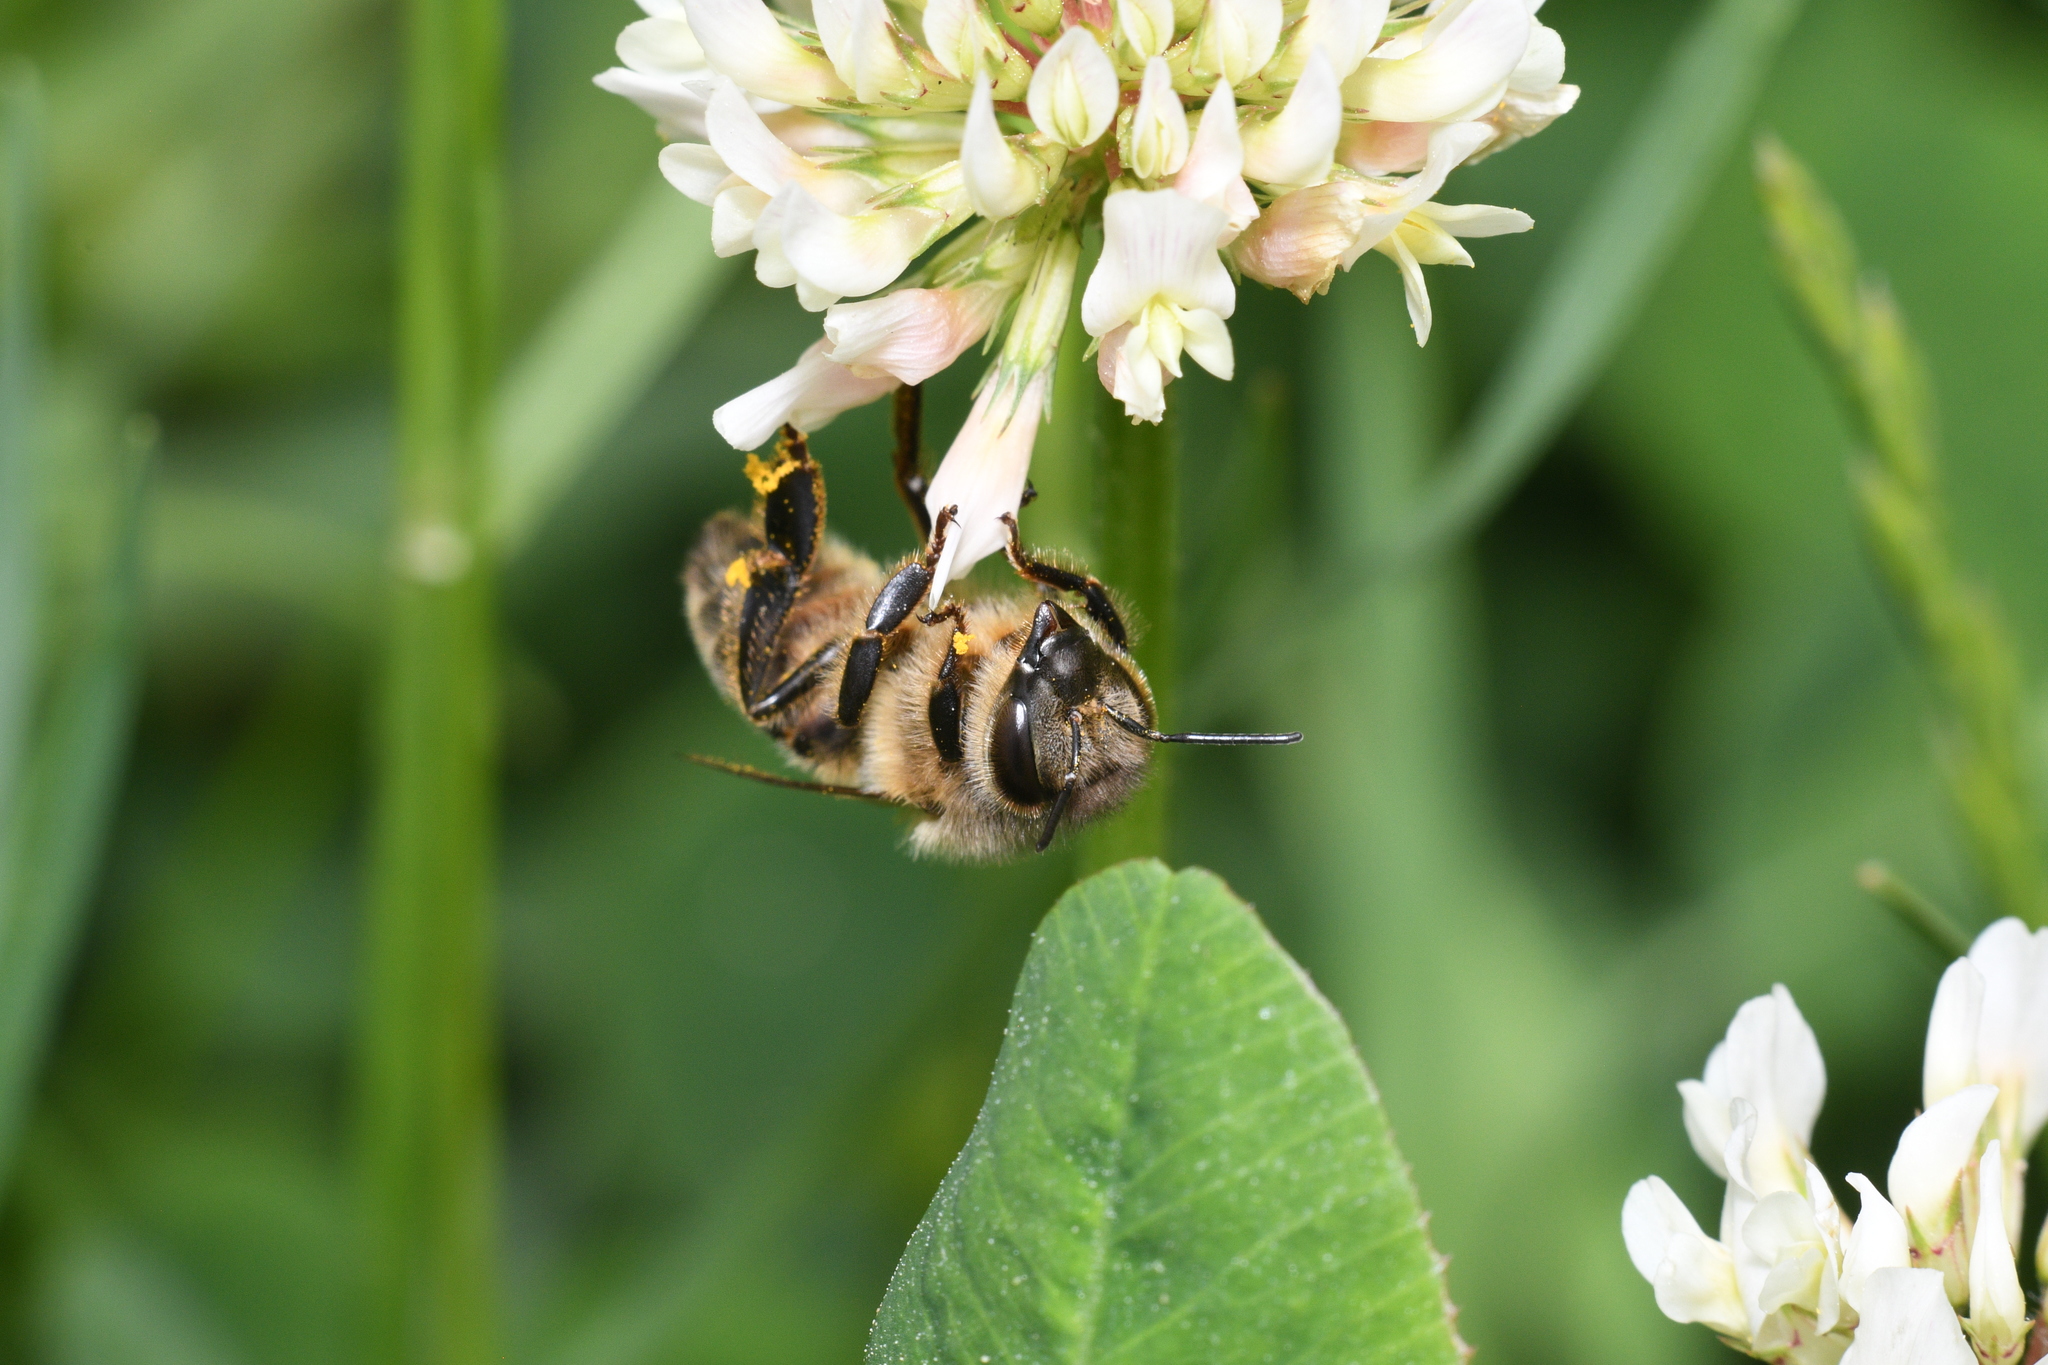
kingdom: Animalia
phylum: Arthropoda
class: Insecta
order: Hymenoptera
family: Apidae
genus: Apis
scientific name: Apis mellifera
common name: Honey bee
